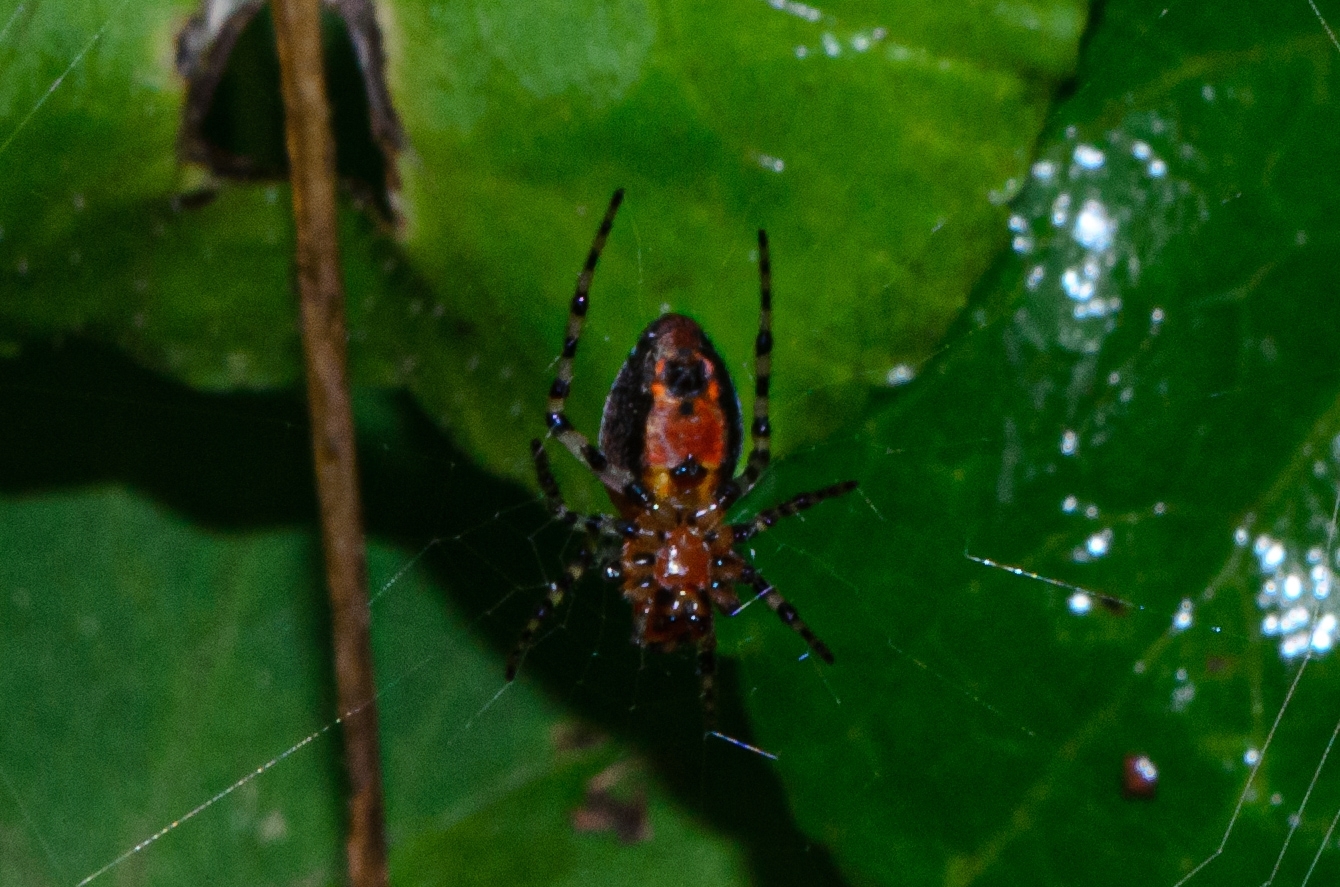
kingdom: Animalia
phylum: Arthropoda
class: Arachnida
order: Araneae
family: Araneidae
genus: Alpaida
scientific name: Alpaida gallardoi
